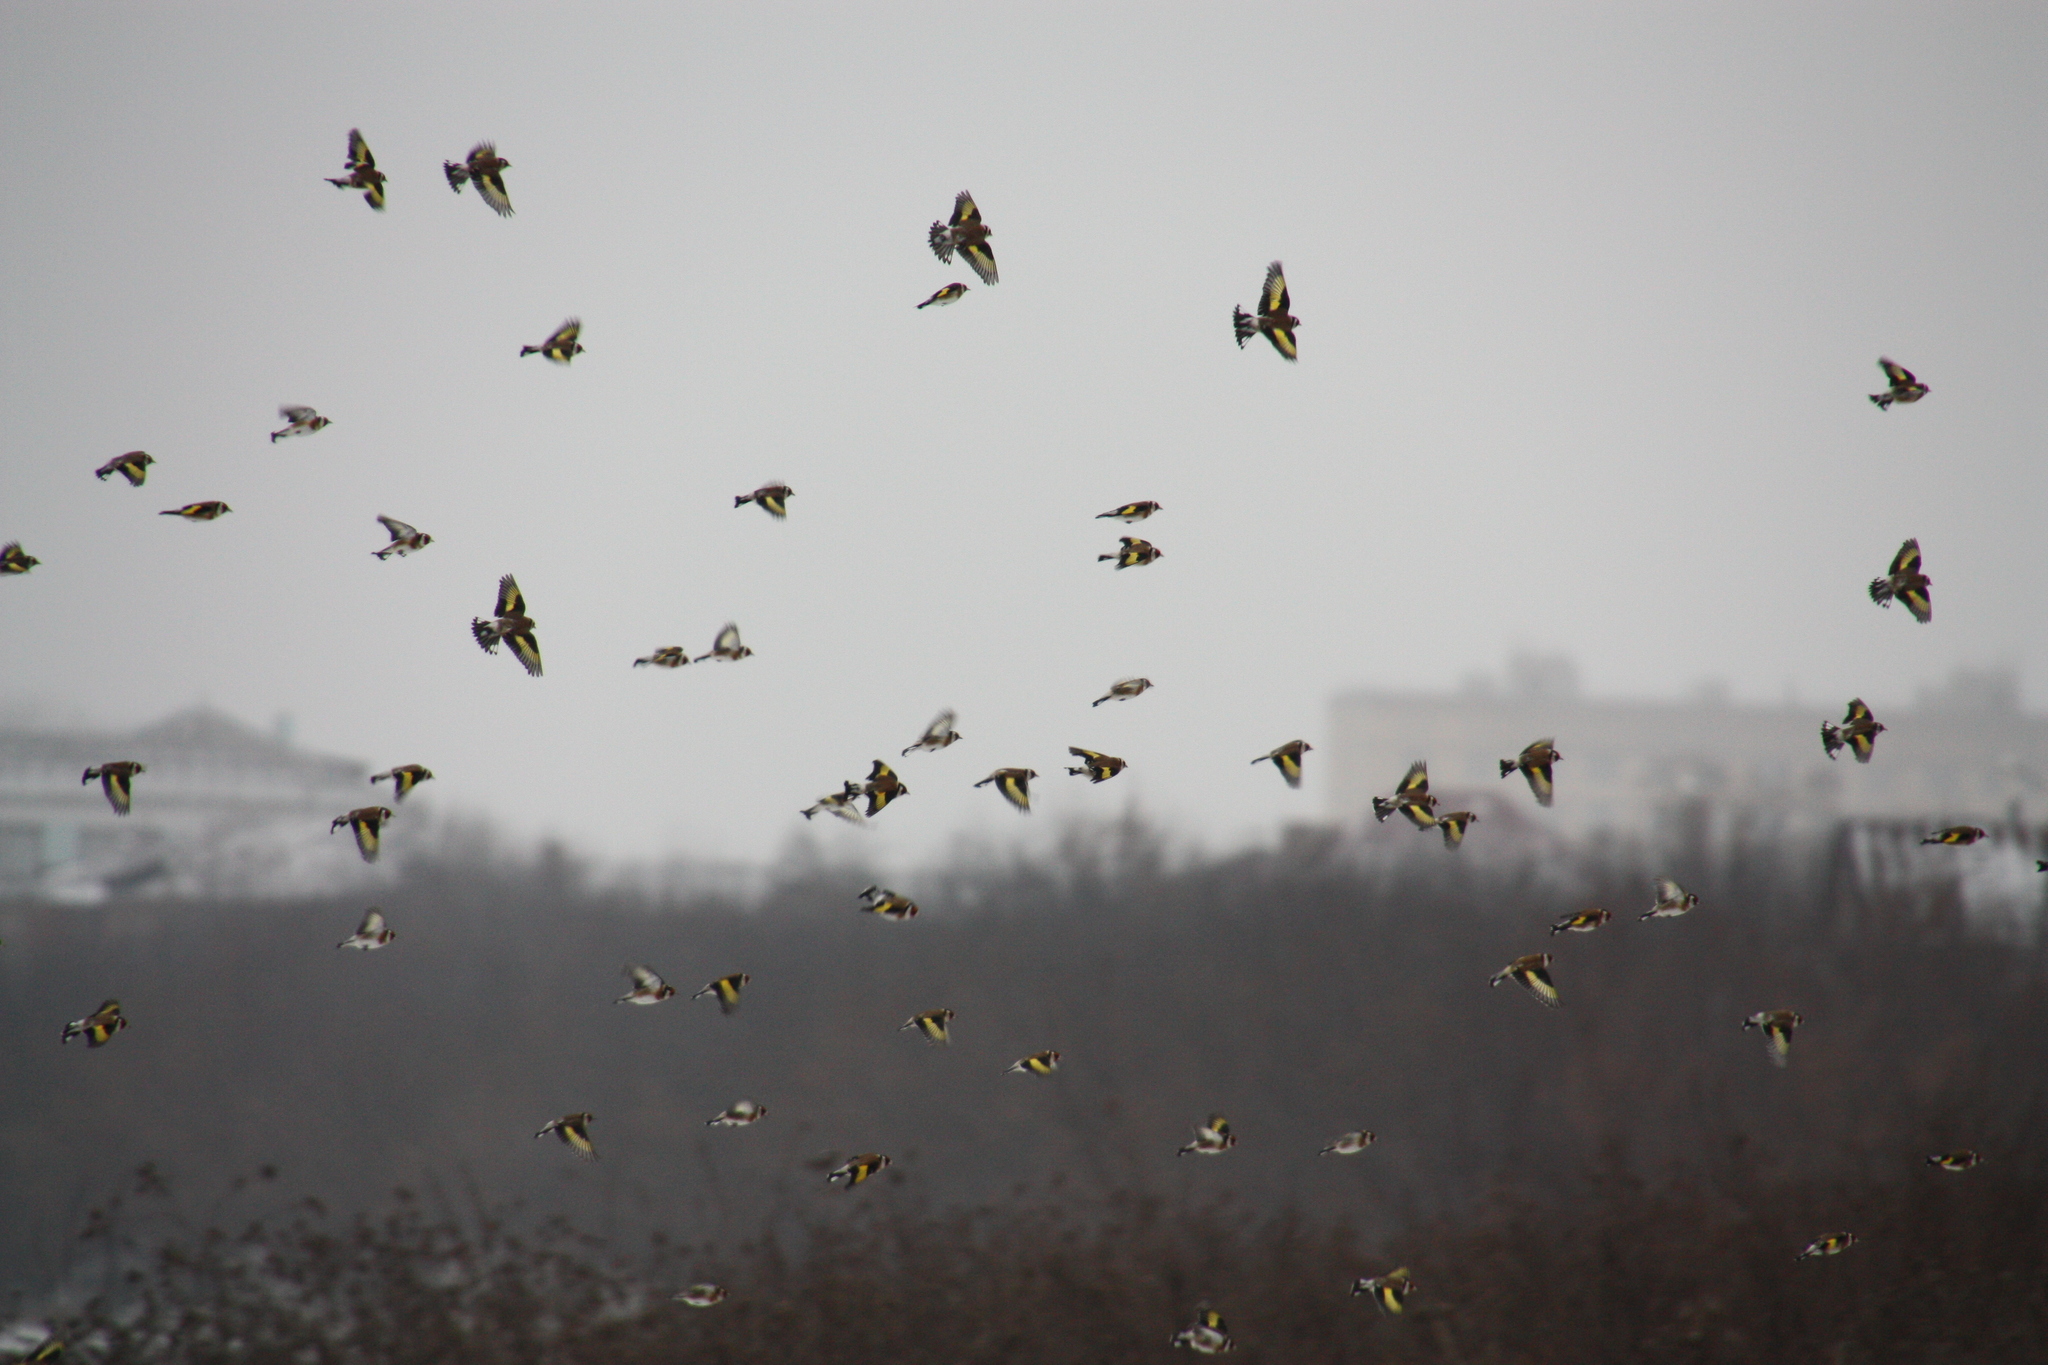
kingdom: Animalia
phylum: Chordata
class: Aves
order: Passeriformes
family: Fringillidae
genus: Carduelis
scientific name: Carduelis carduelis
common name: European goldfinch
